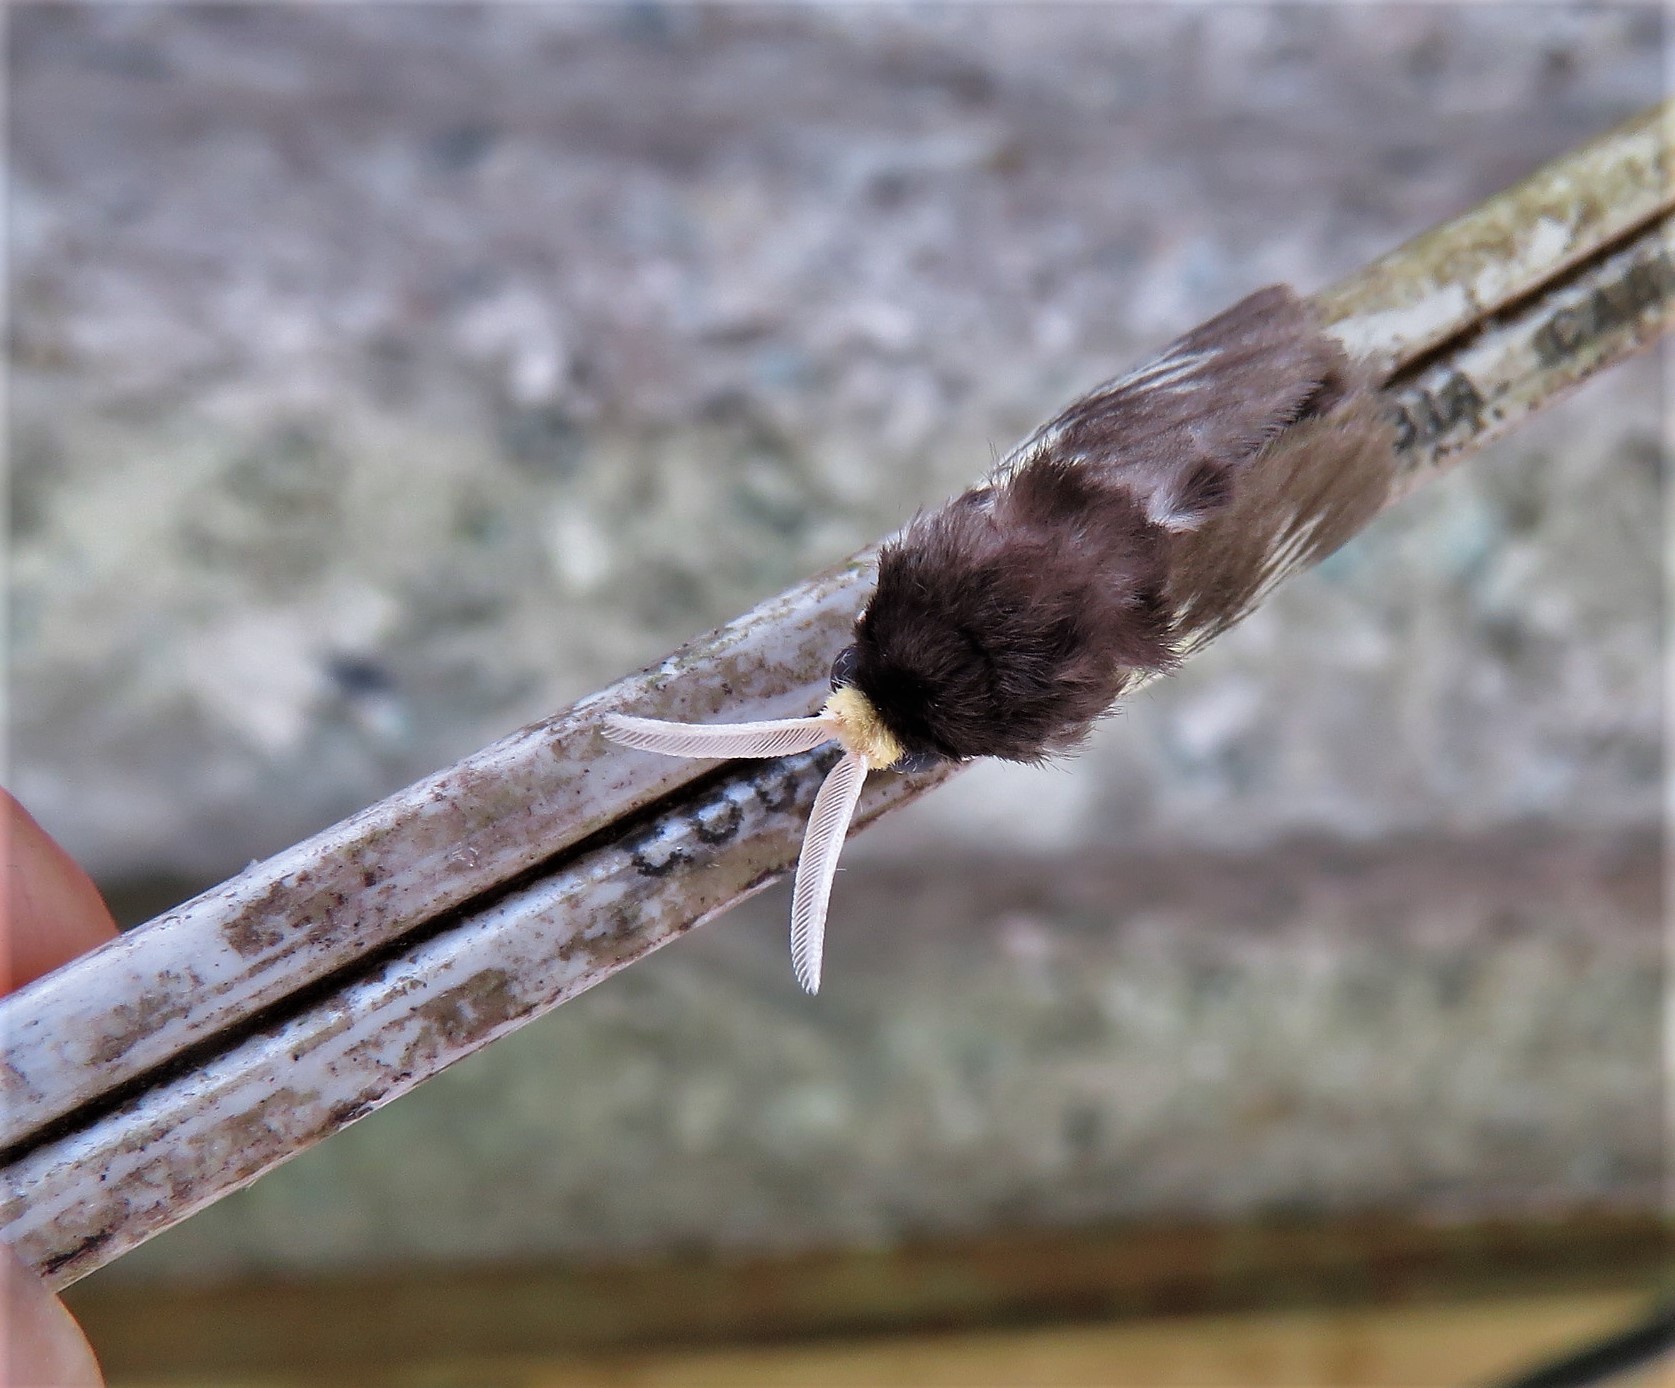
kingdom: Animalia
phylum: Arthropoda
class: Insecta
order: Lepidoptera
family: Megalopygidae
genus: Podalia
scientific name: Podalia tympania
